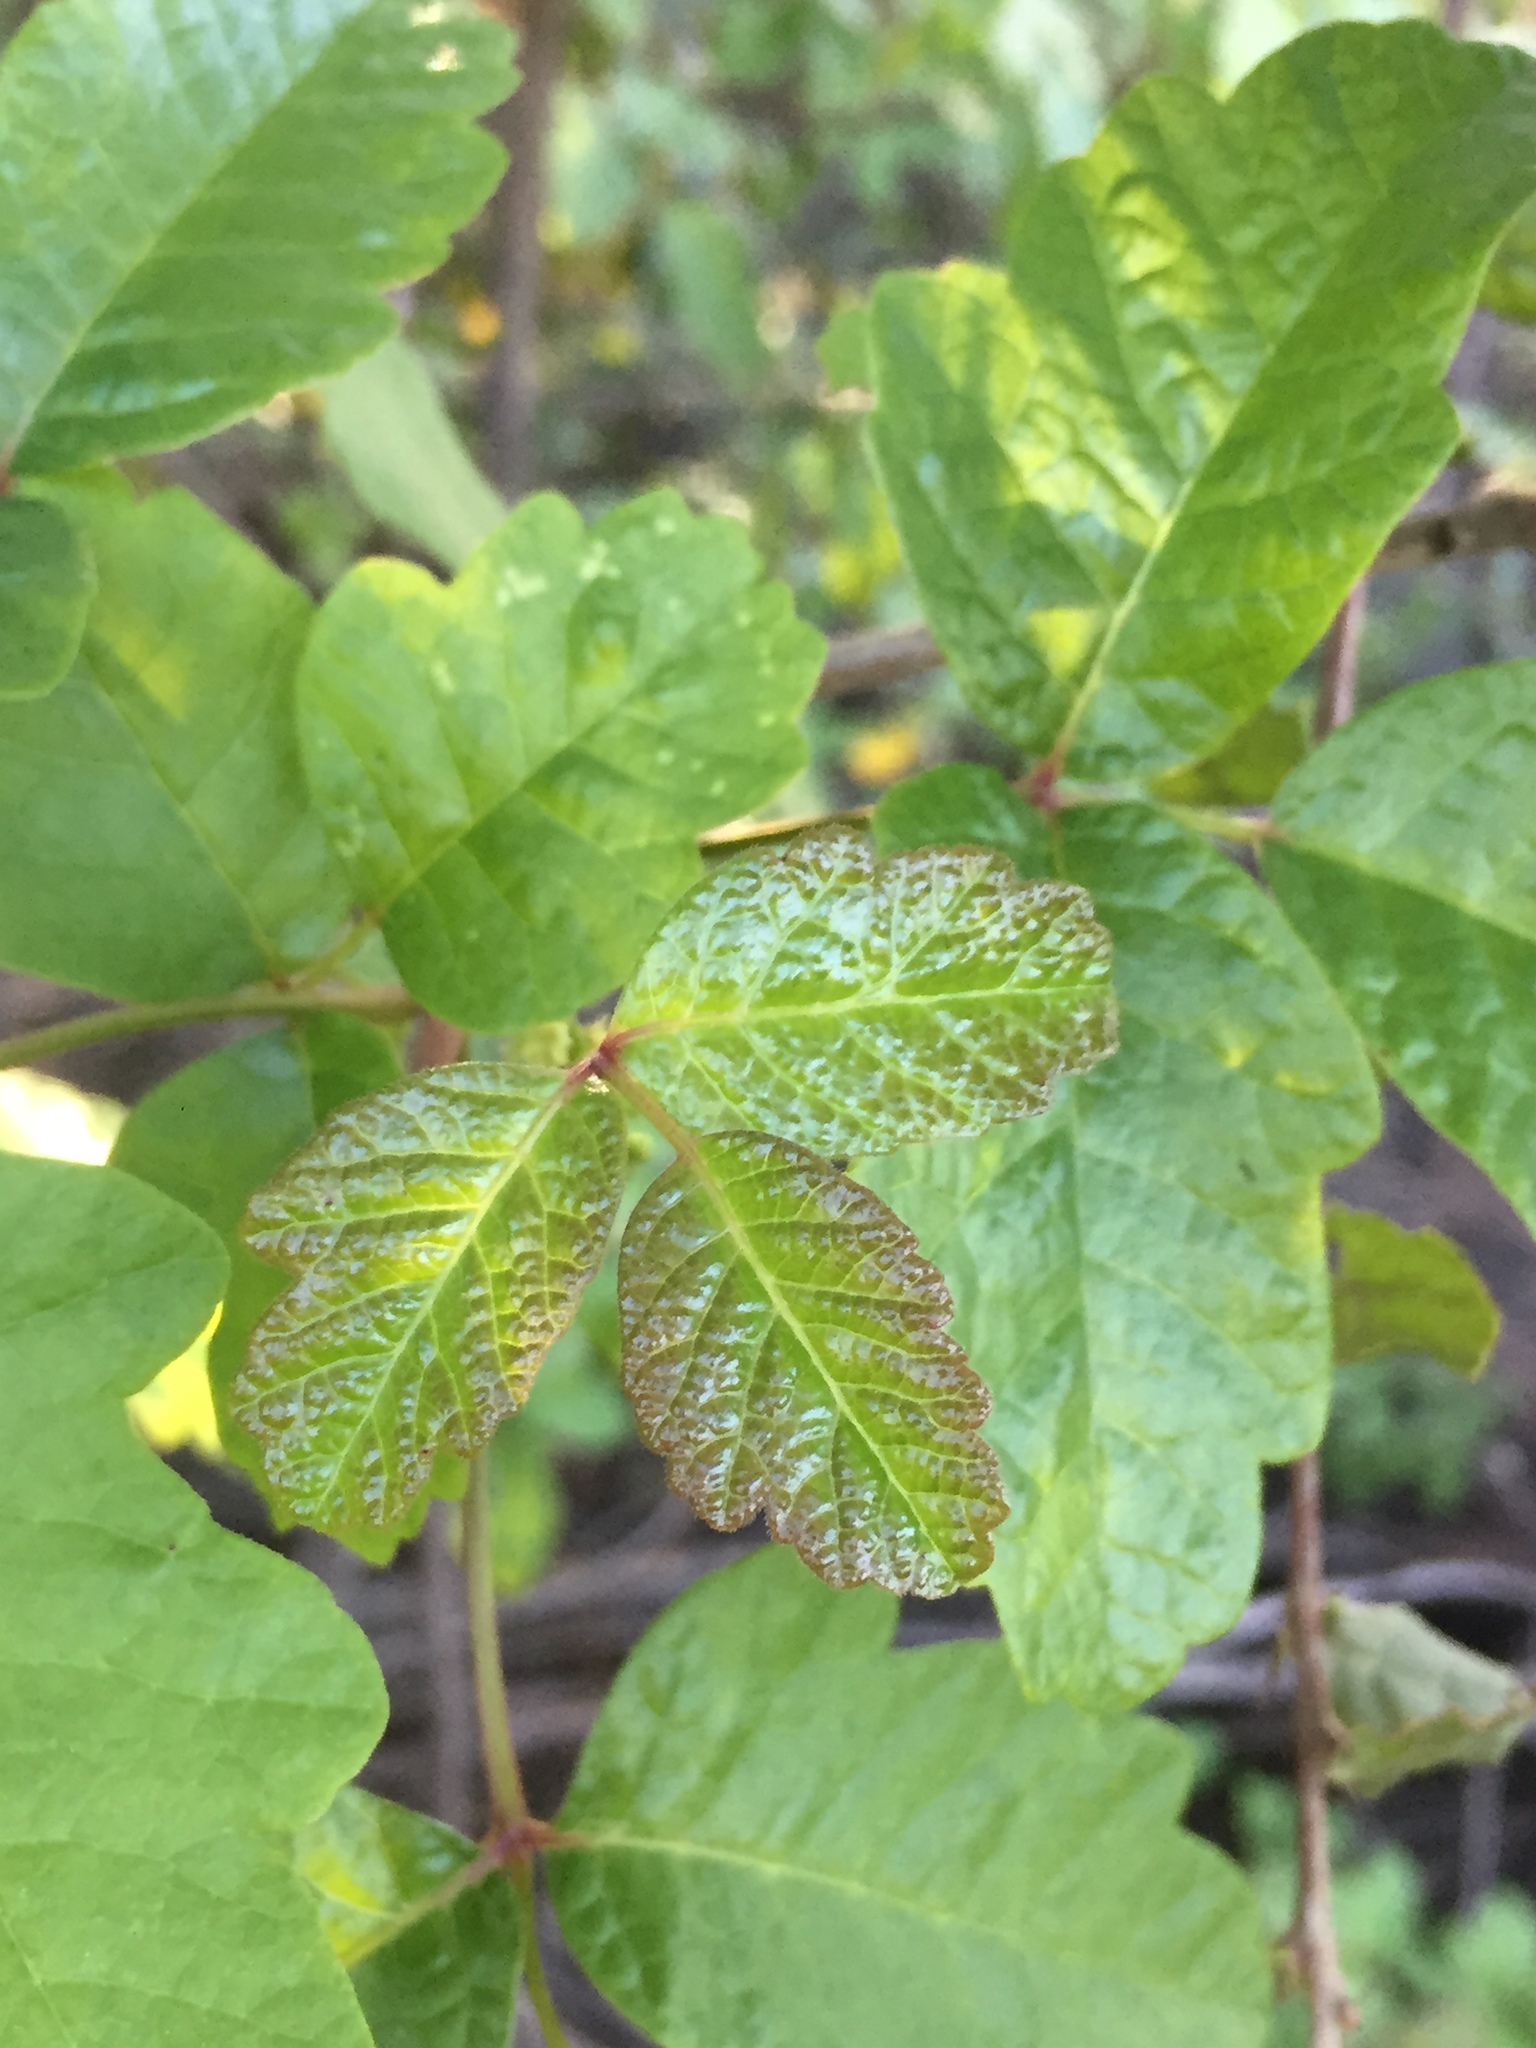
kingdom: Plantae
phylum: Tracheophyta
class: Magnoliopsida
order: Sapindales
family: Anacardiaceae
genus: Toxicodendron
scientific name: Toxicodendron diversilobum
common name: Pacific poison-oak
